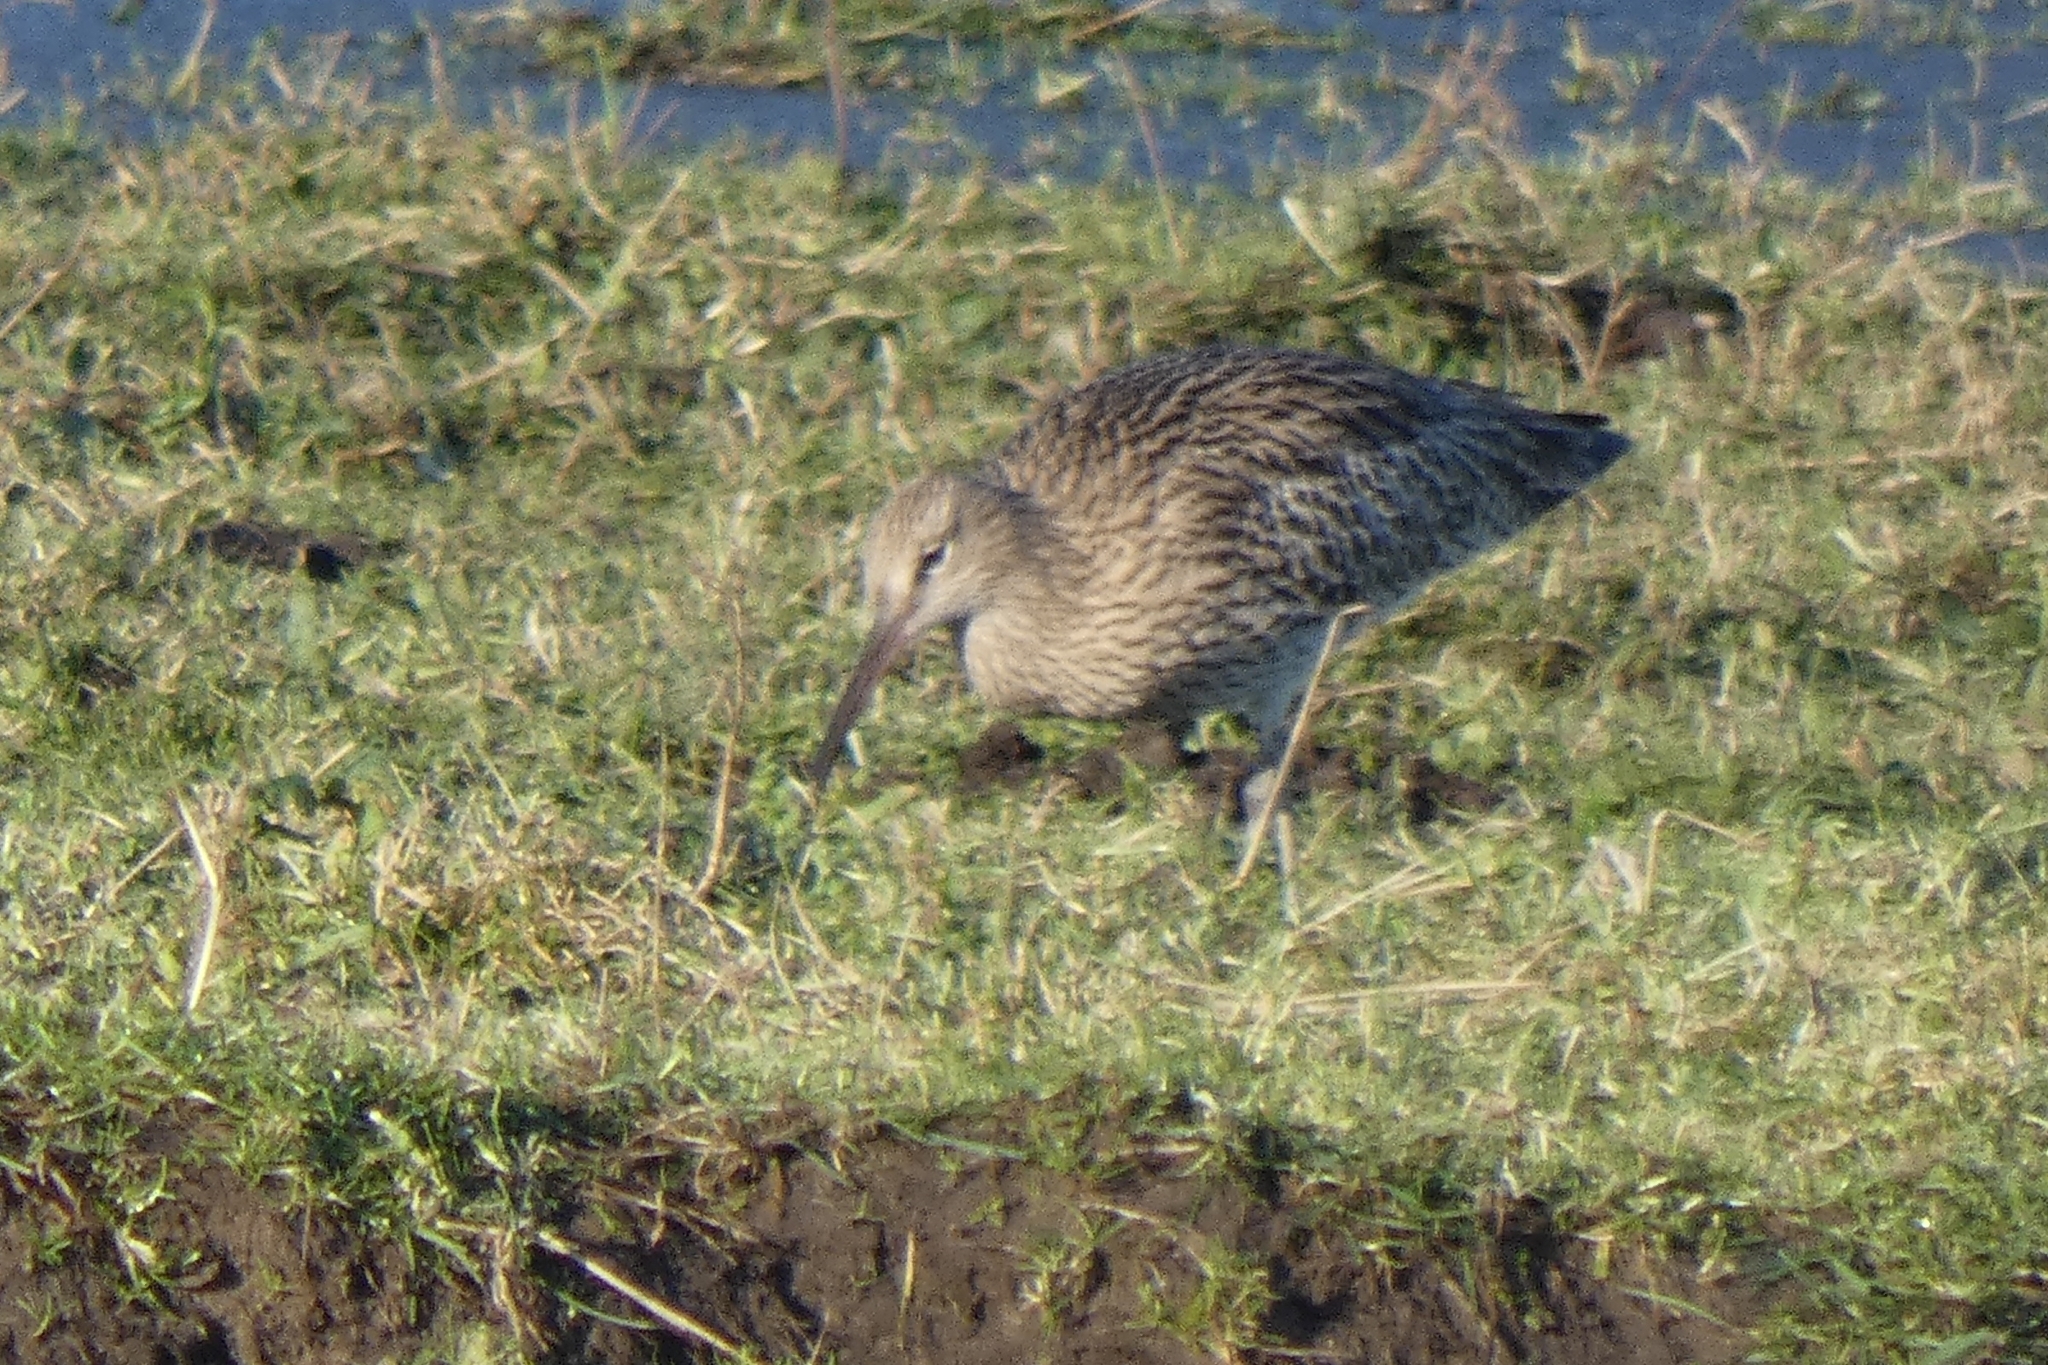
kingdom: Animalia
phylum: Chordata
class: Aves
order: Charadriiformes
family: Scolopacidae
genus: Numenius
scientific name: Numenius arquata
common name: Eurasian curlew
